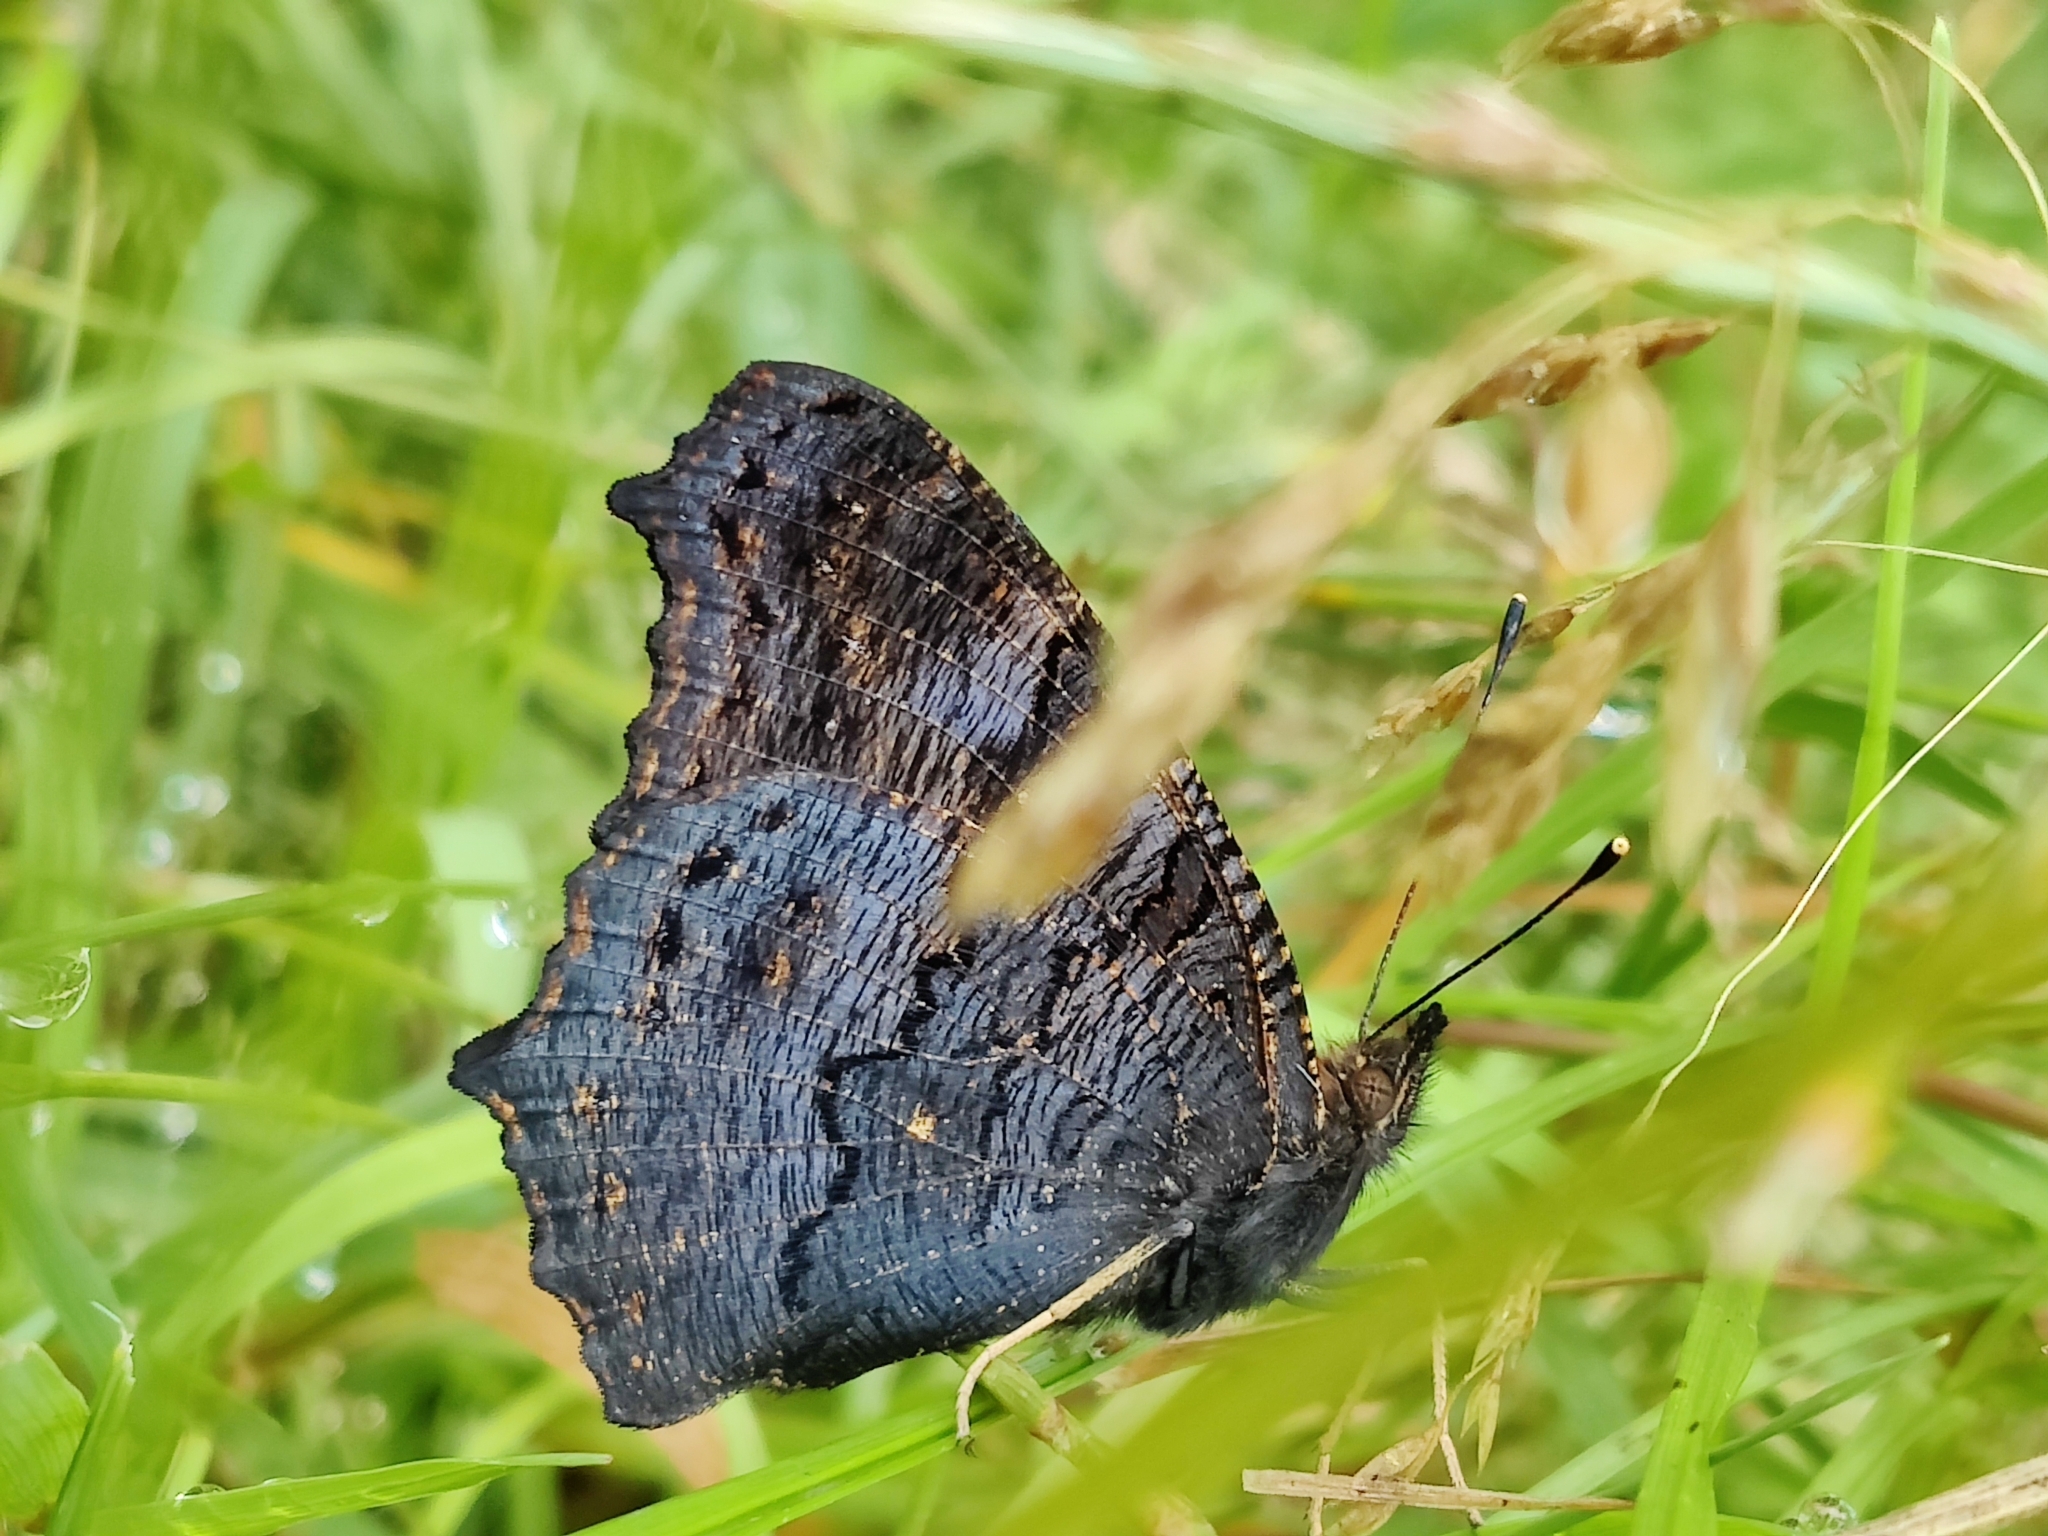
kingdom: Animalia
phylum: Arthropoda
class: Insecta
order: Lepidoptera
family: Nymphalidae
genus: Aglais
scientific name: Aglais io
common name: Peacock
